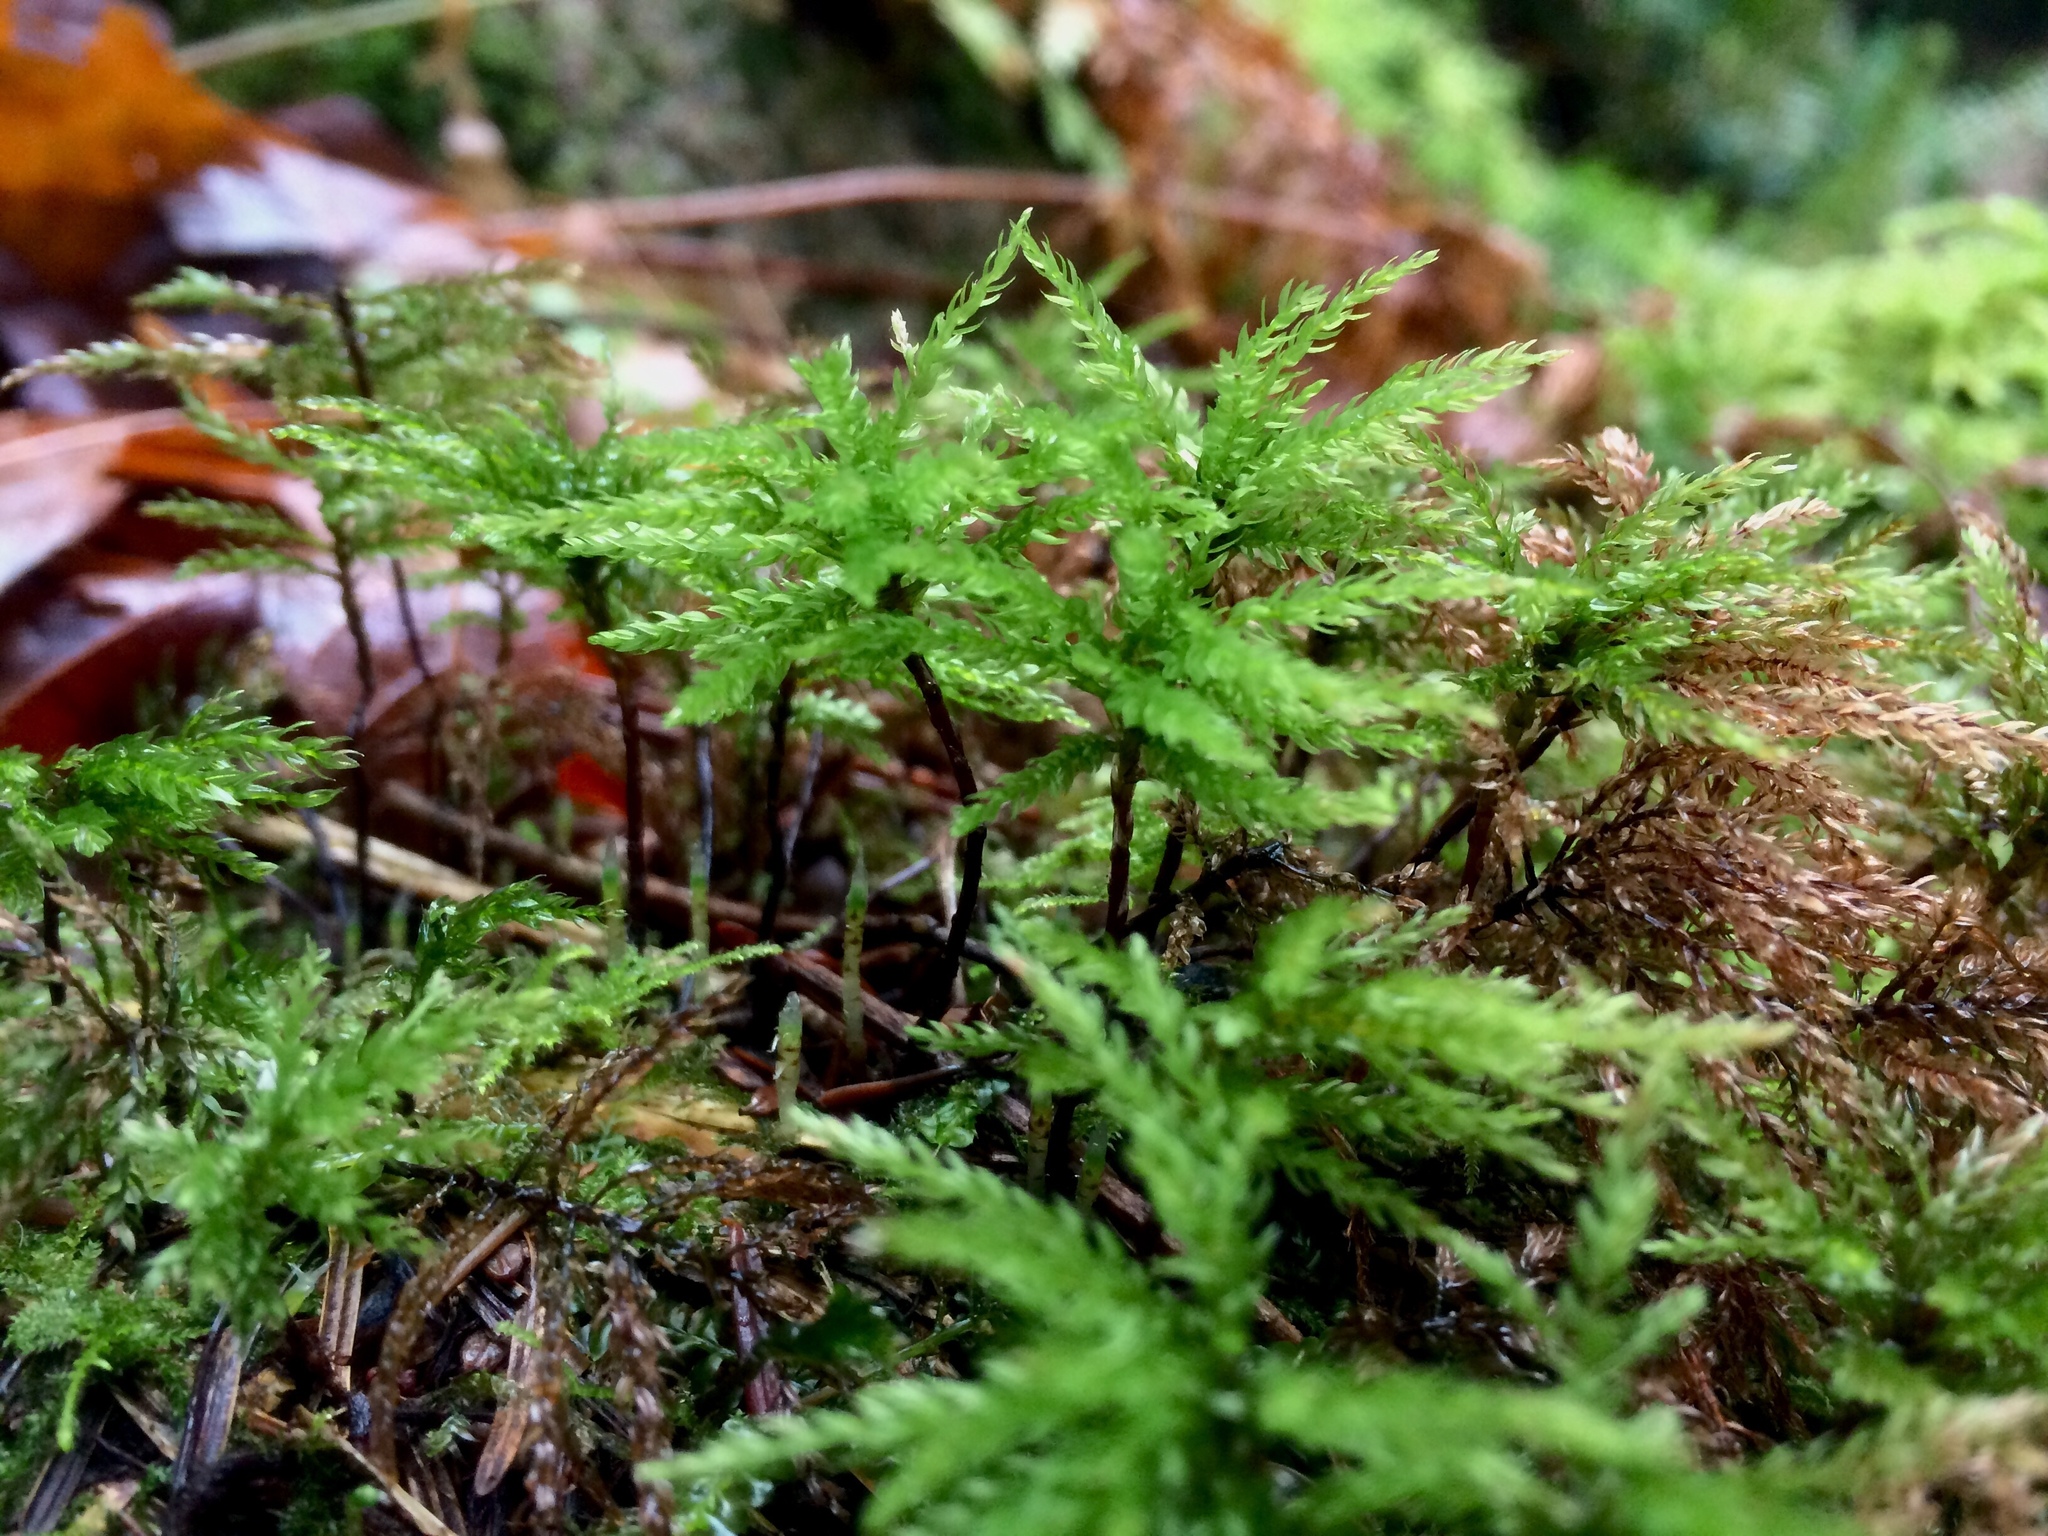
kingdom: Plantae
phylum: Bryophyta
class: Bryopsida
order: Bryales
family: Mniaceae
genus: Leucolepis
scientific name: Leucolepis acanthoneura
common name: Leucolepis umbrella moss
